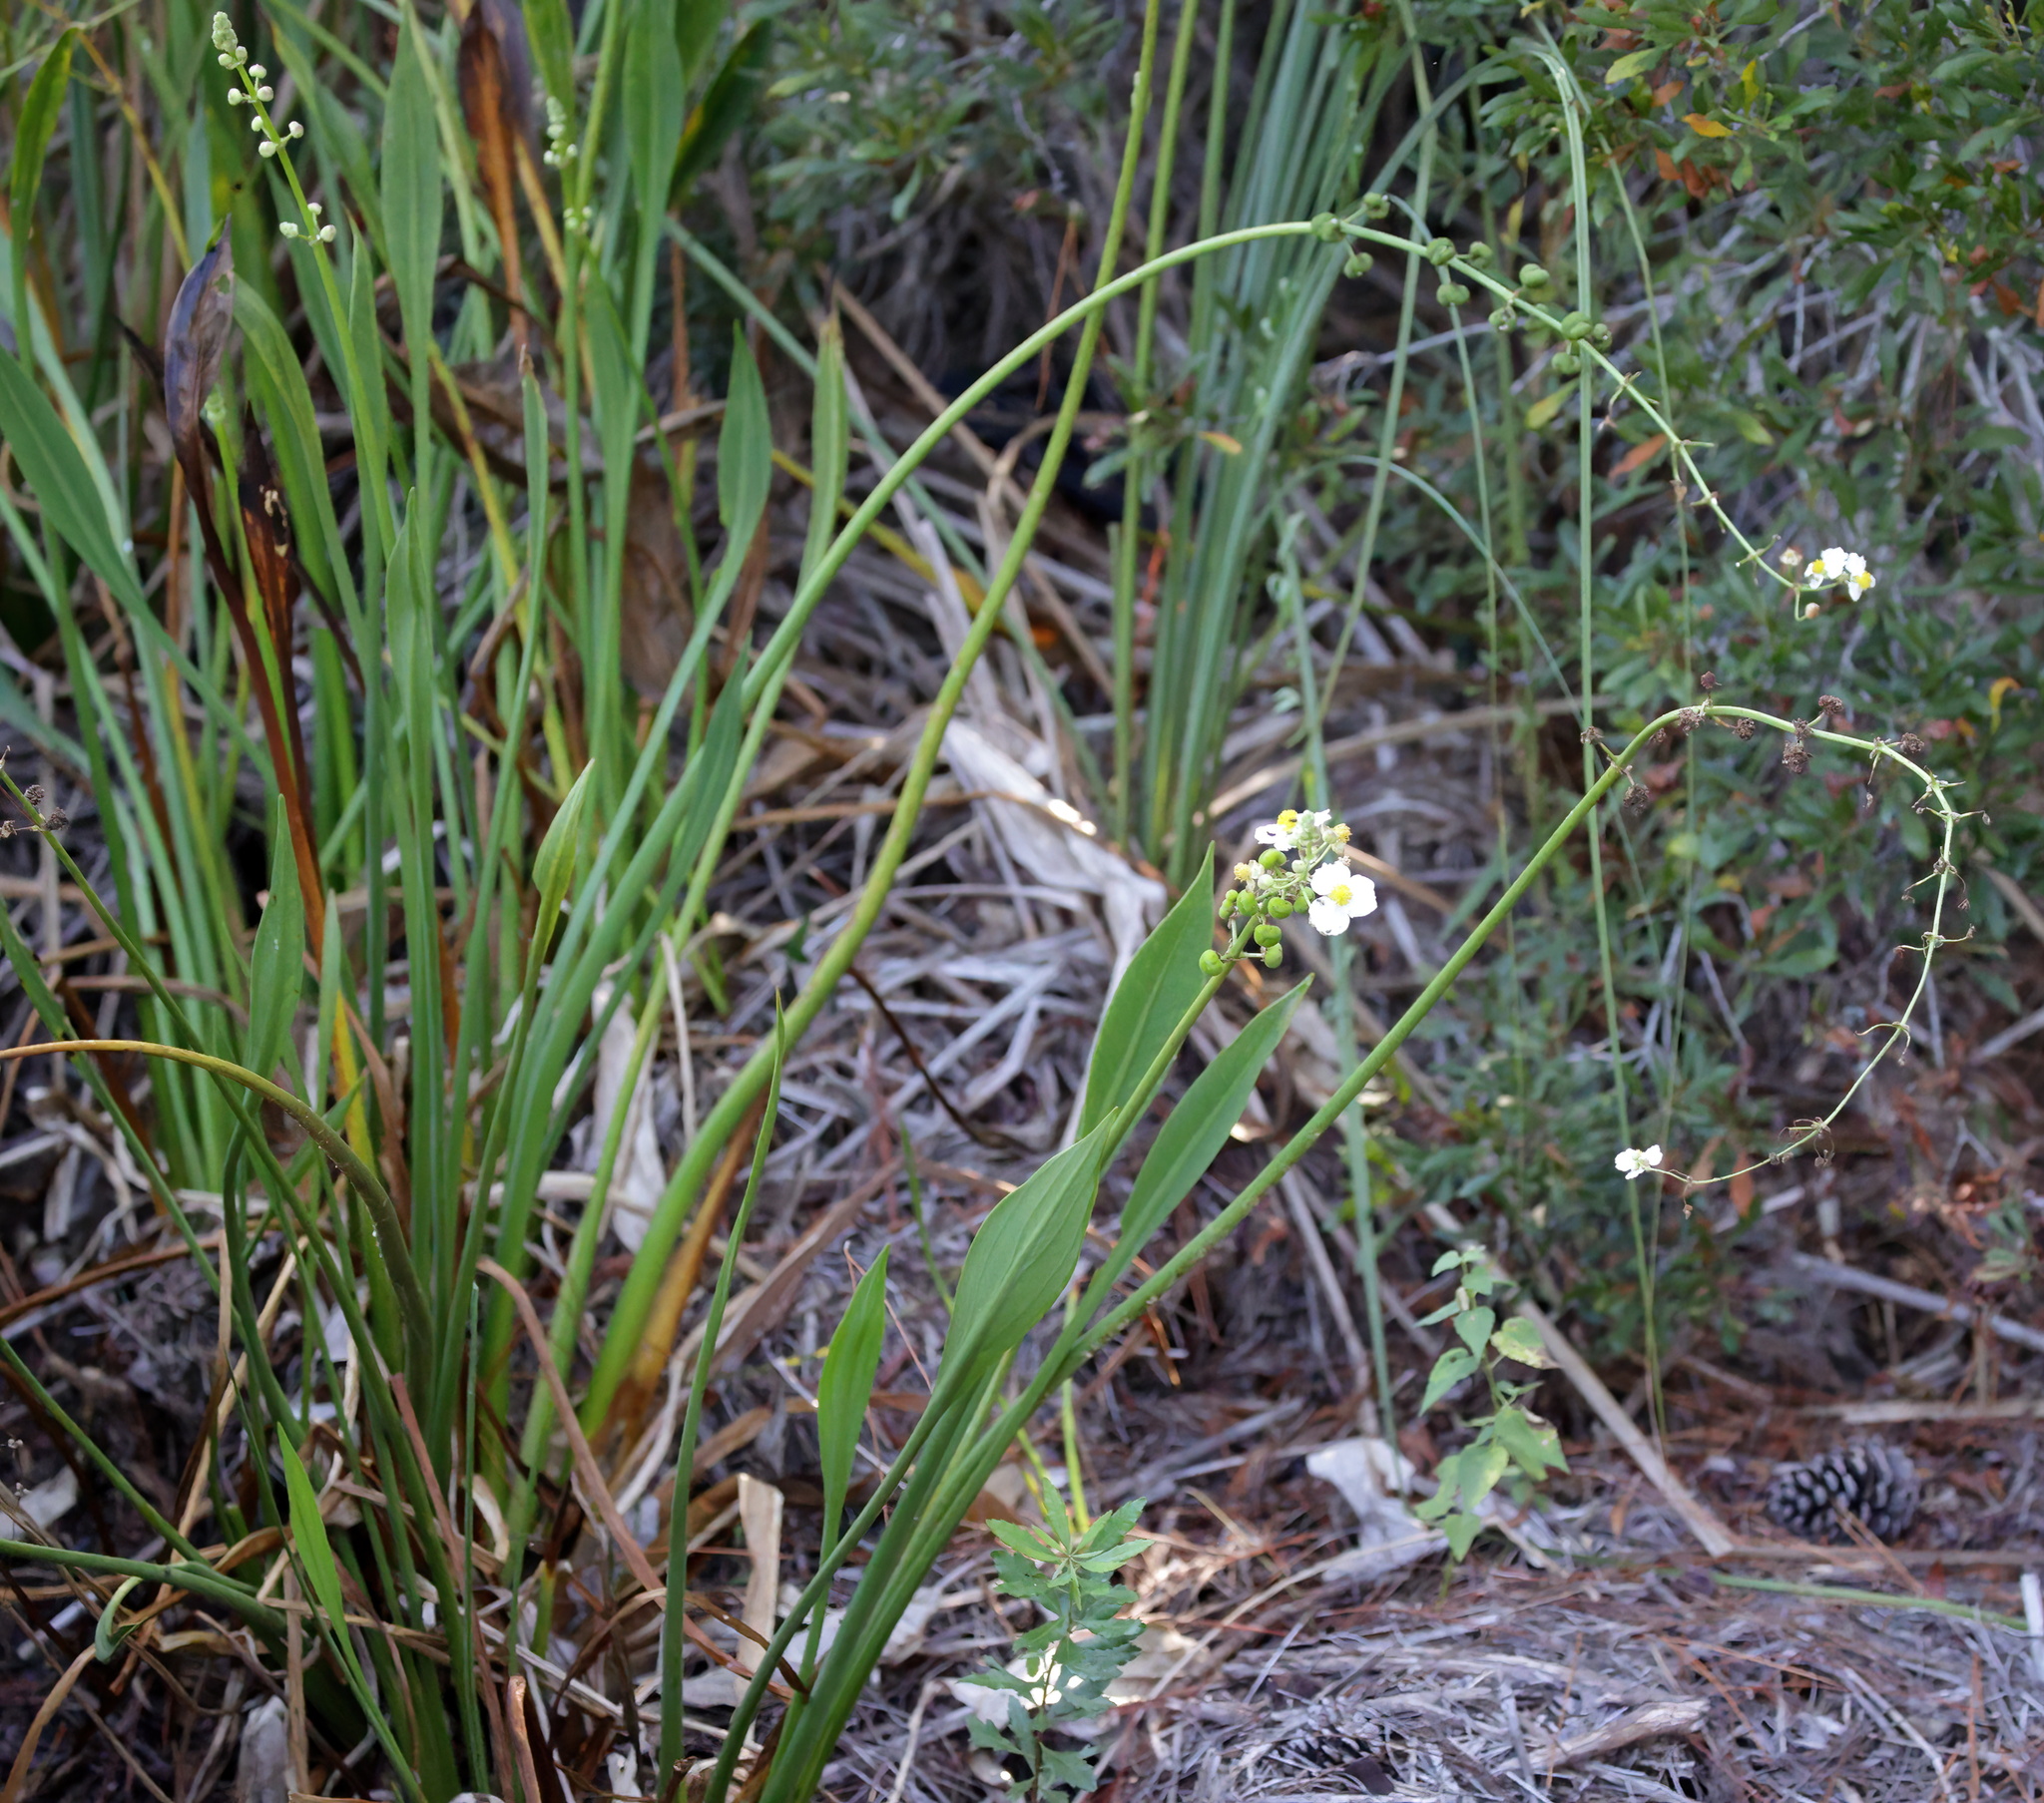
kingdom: Plantae
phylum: Tracheophyta
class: Liliopsida
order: Alismatales
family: Alismataceae
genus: Sagittaria
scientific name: Sagittaria lancifolia
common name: Lance-leaf arrowhead
